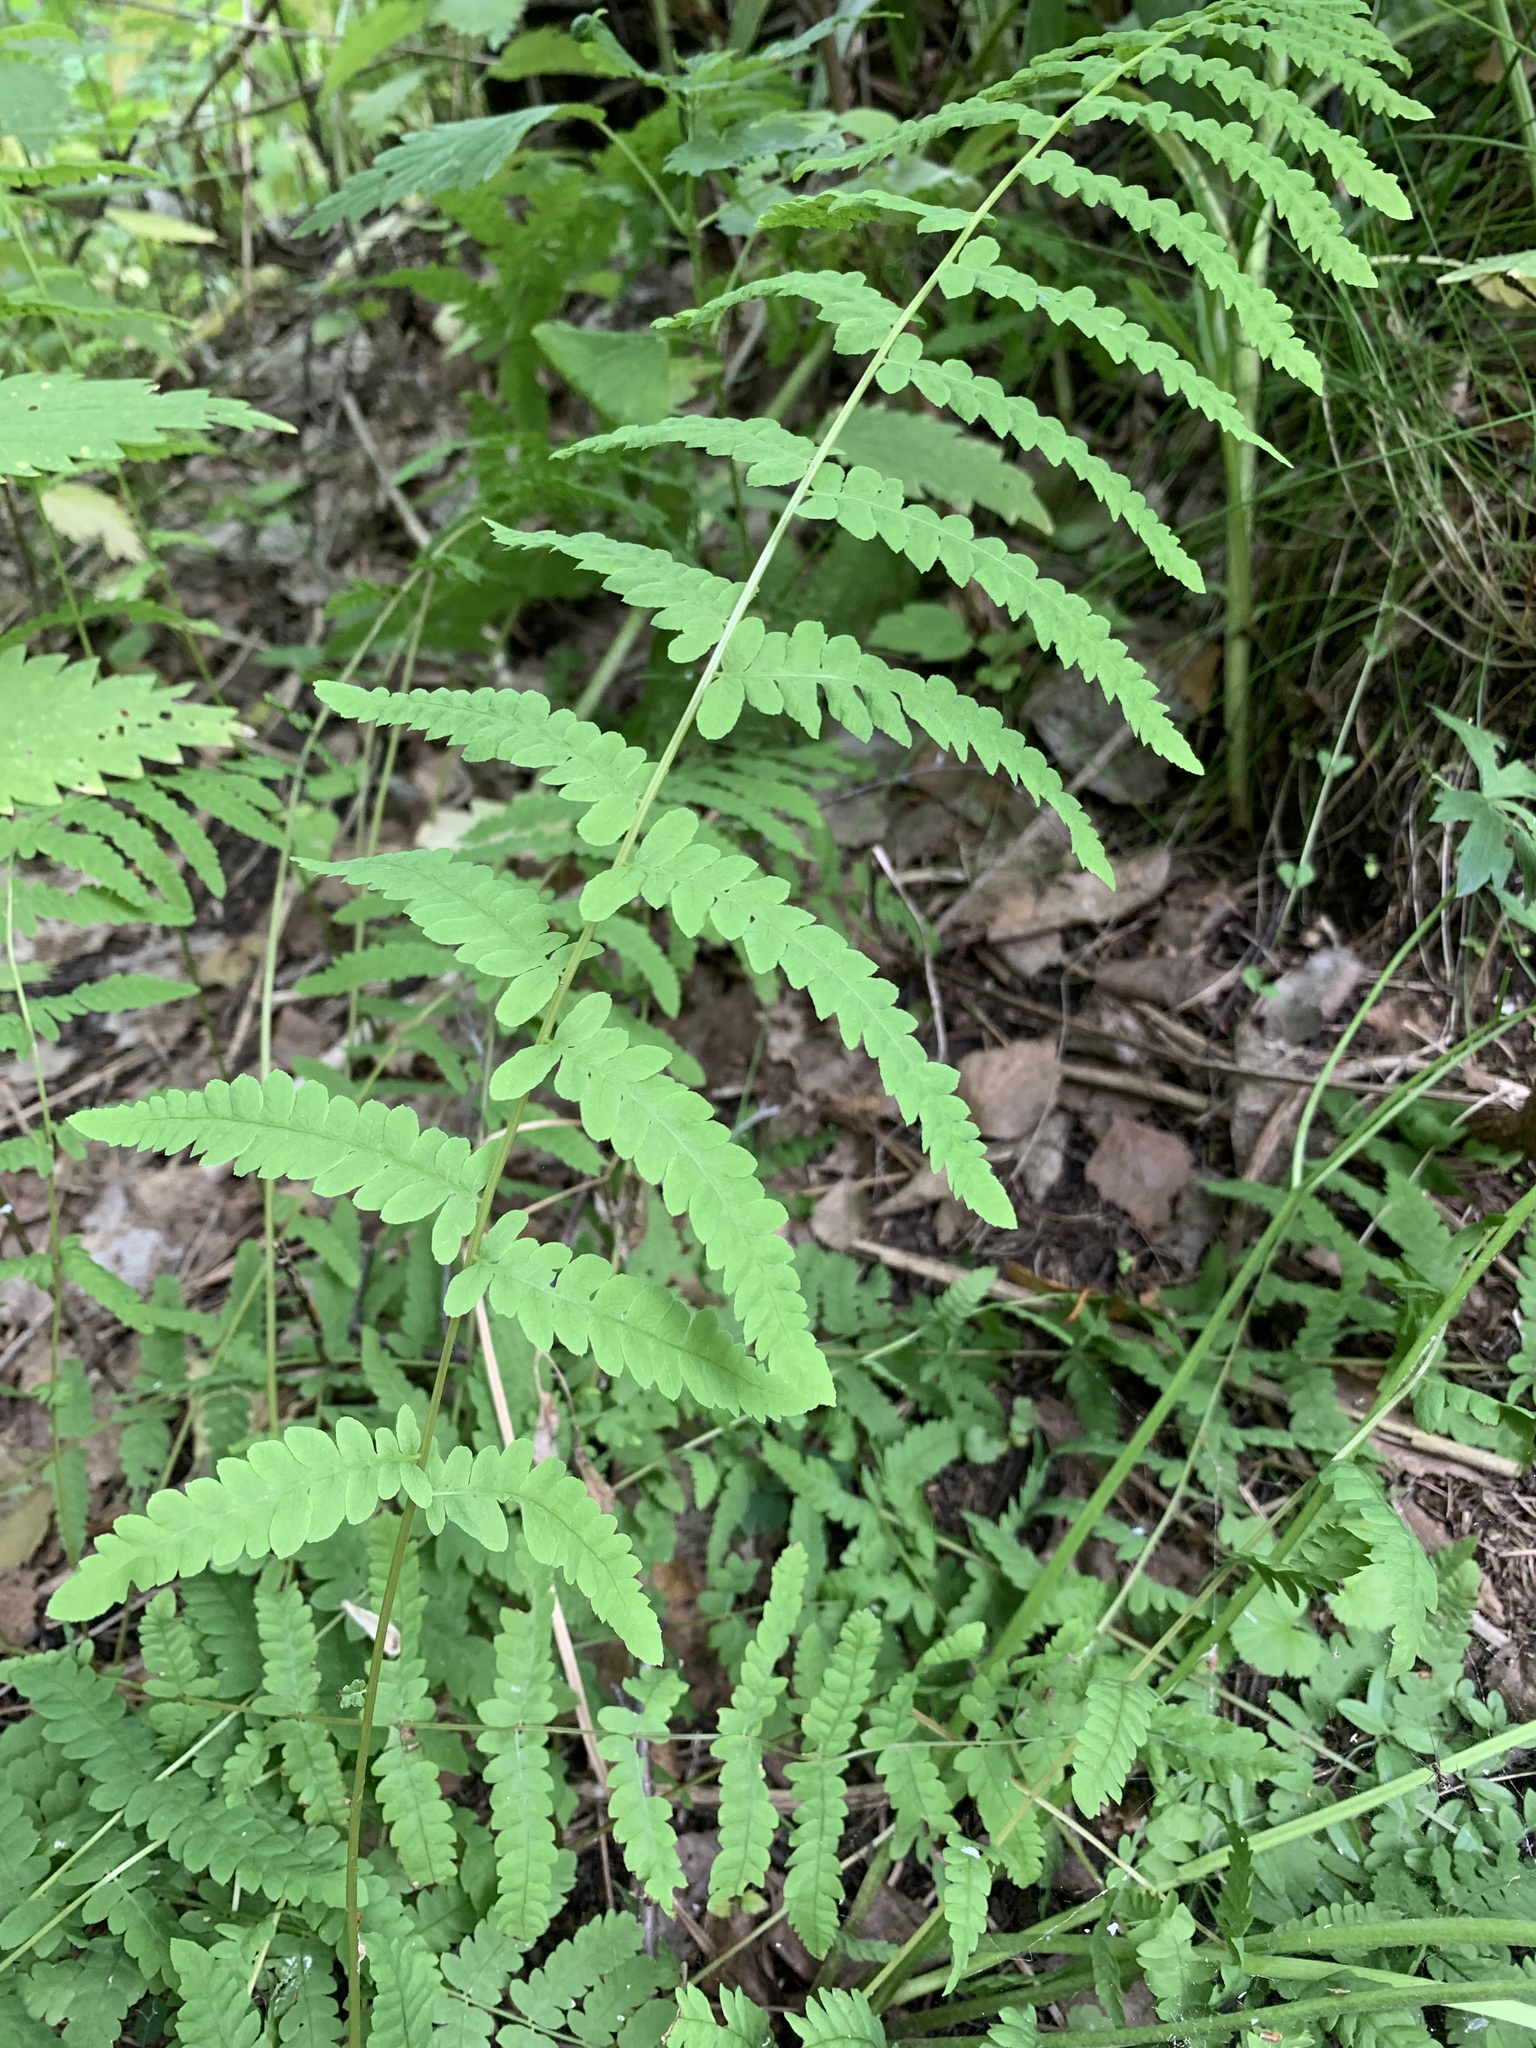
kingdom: Plantae
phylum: Tracheophyta
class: Polypodiopsida
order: Polypodiales
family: Thelypteridaceae
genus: Thelypteris
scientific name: Thelypteris palustris
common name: Marsh fern
